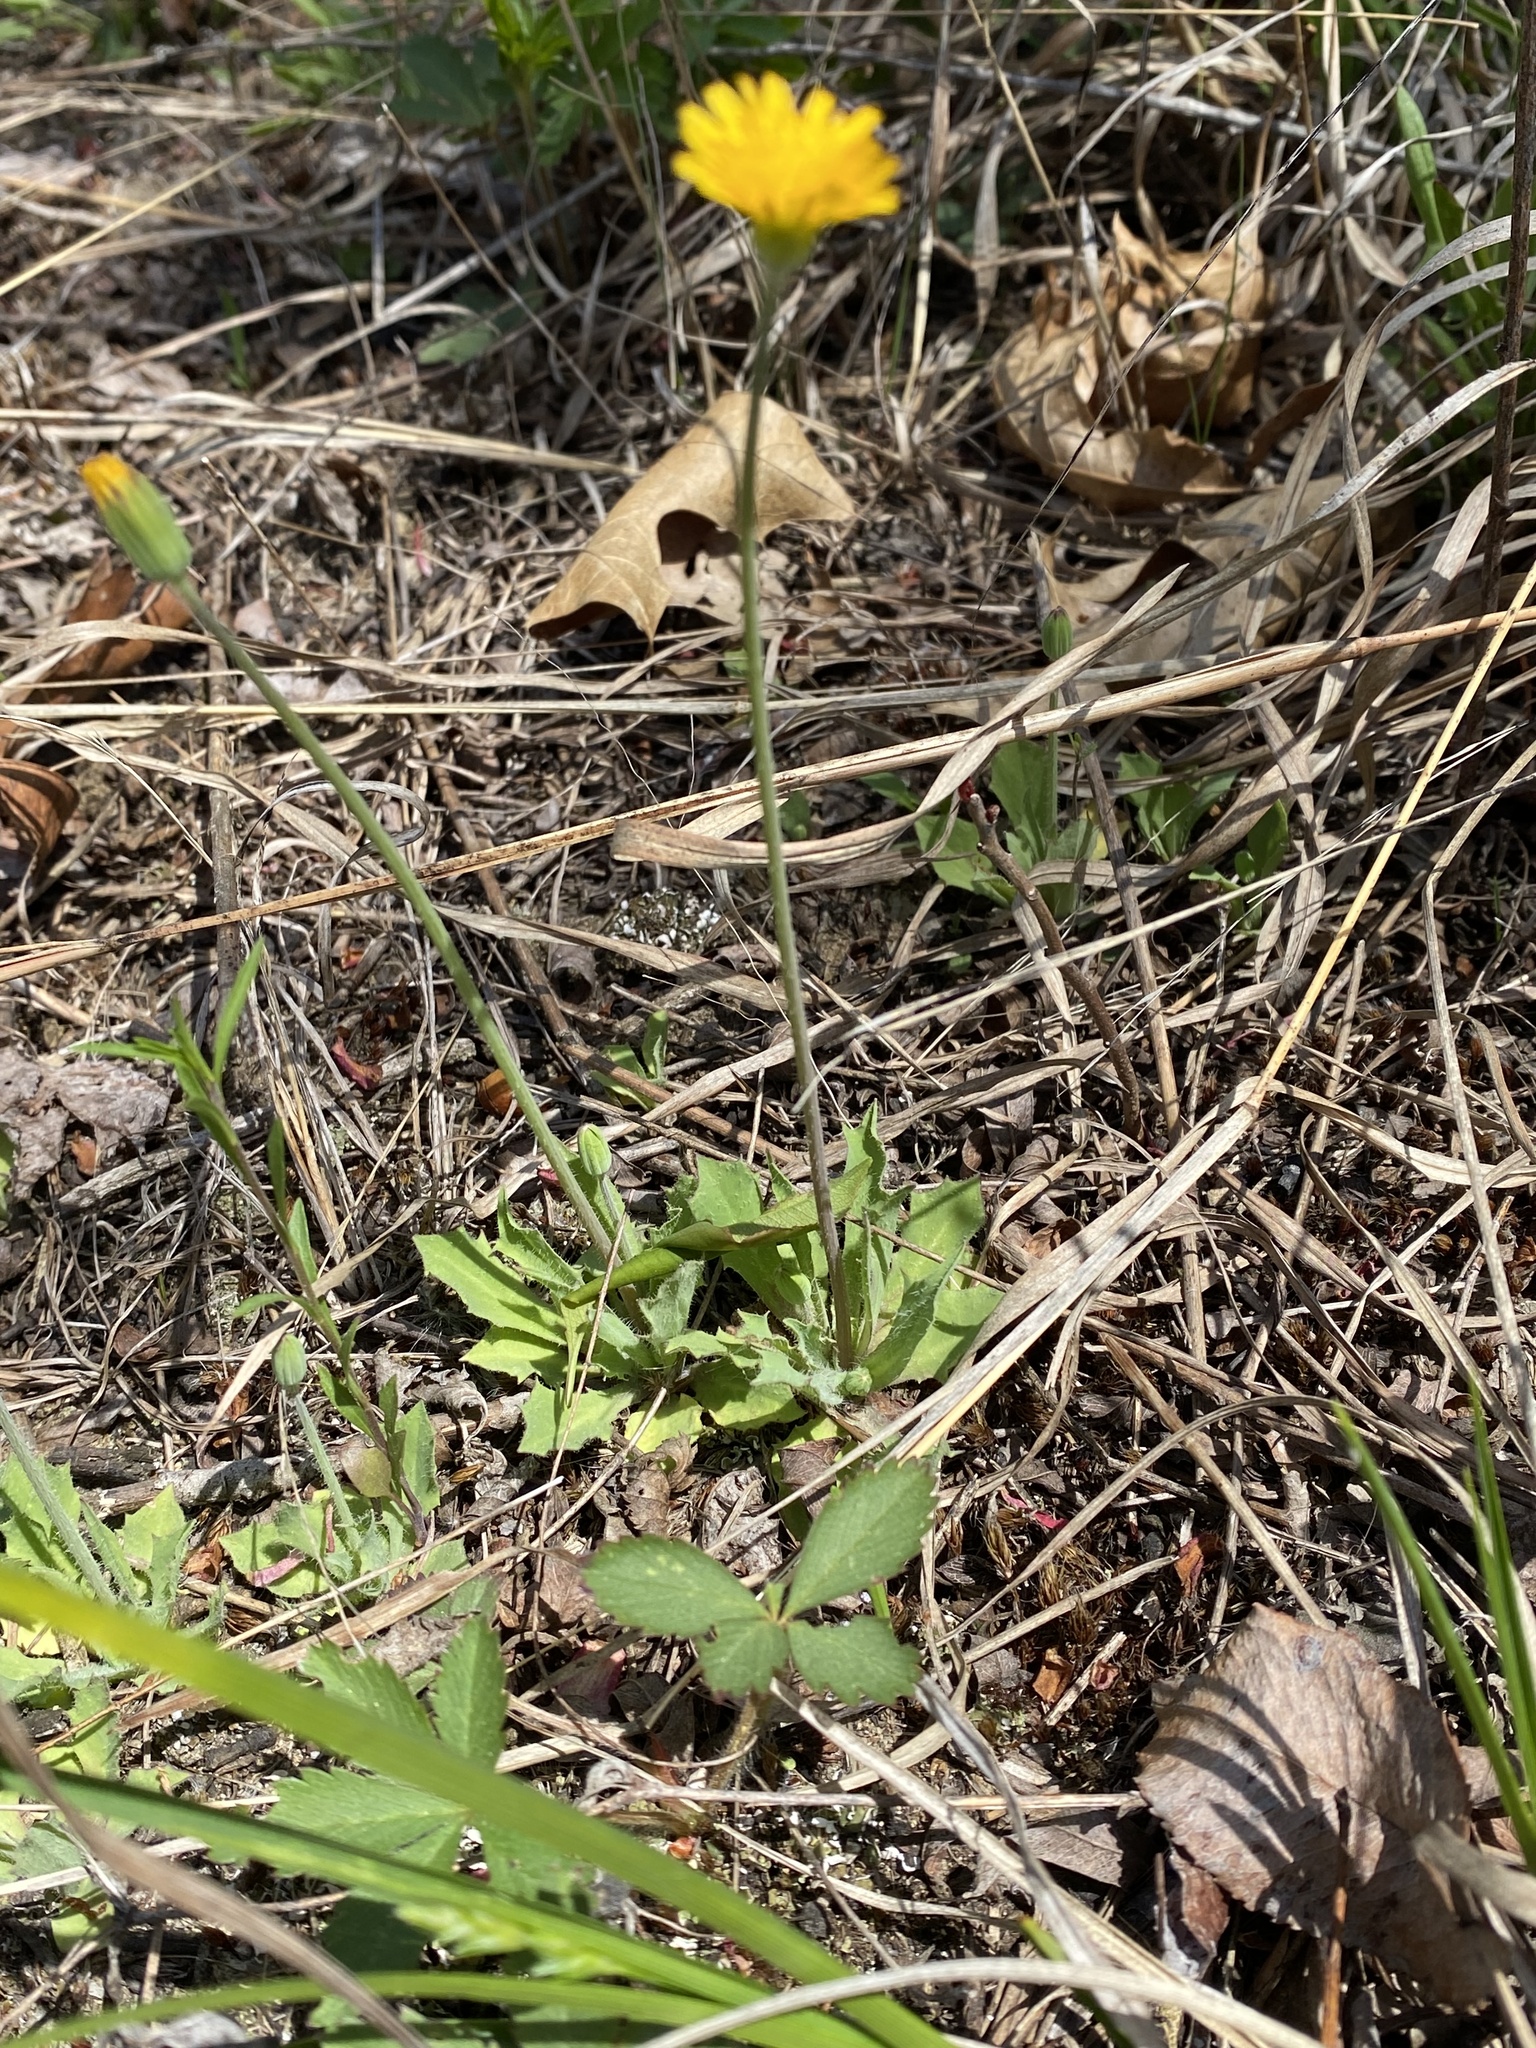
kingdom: Plantae
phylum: Tracheophyta
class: Magnoliopsida
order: Asterales
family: Asteraceae
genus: Krigia
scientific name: Krigia virginica
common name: Virginia dwarf-dandelion
